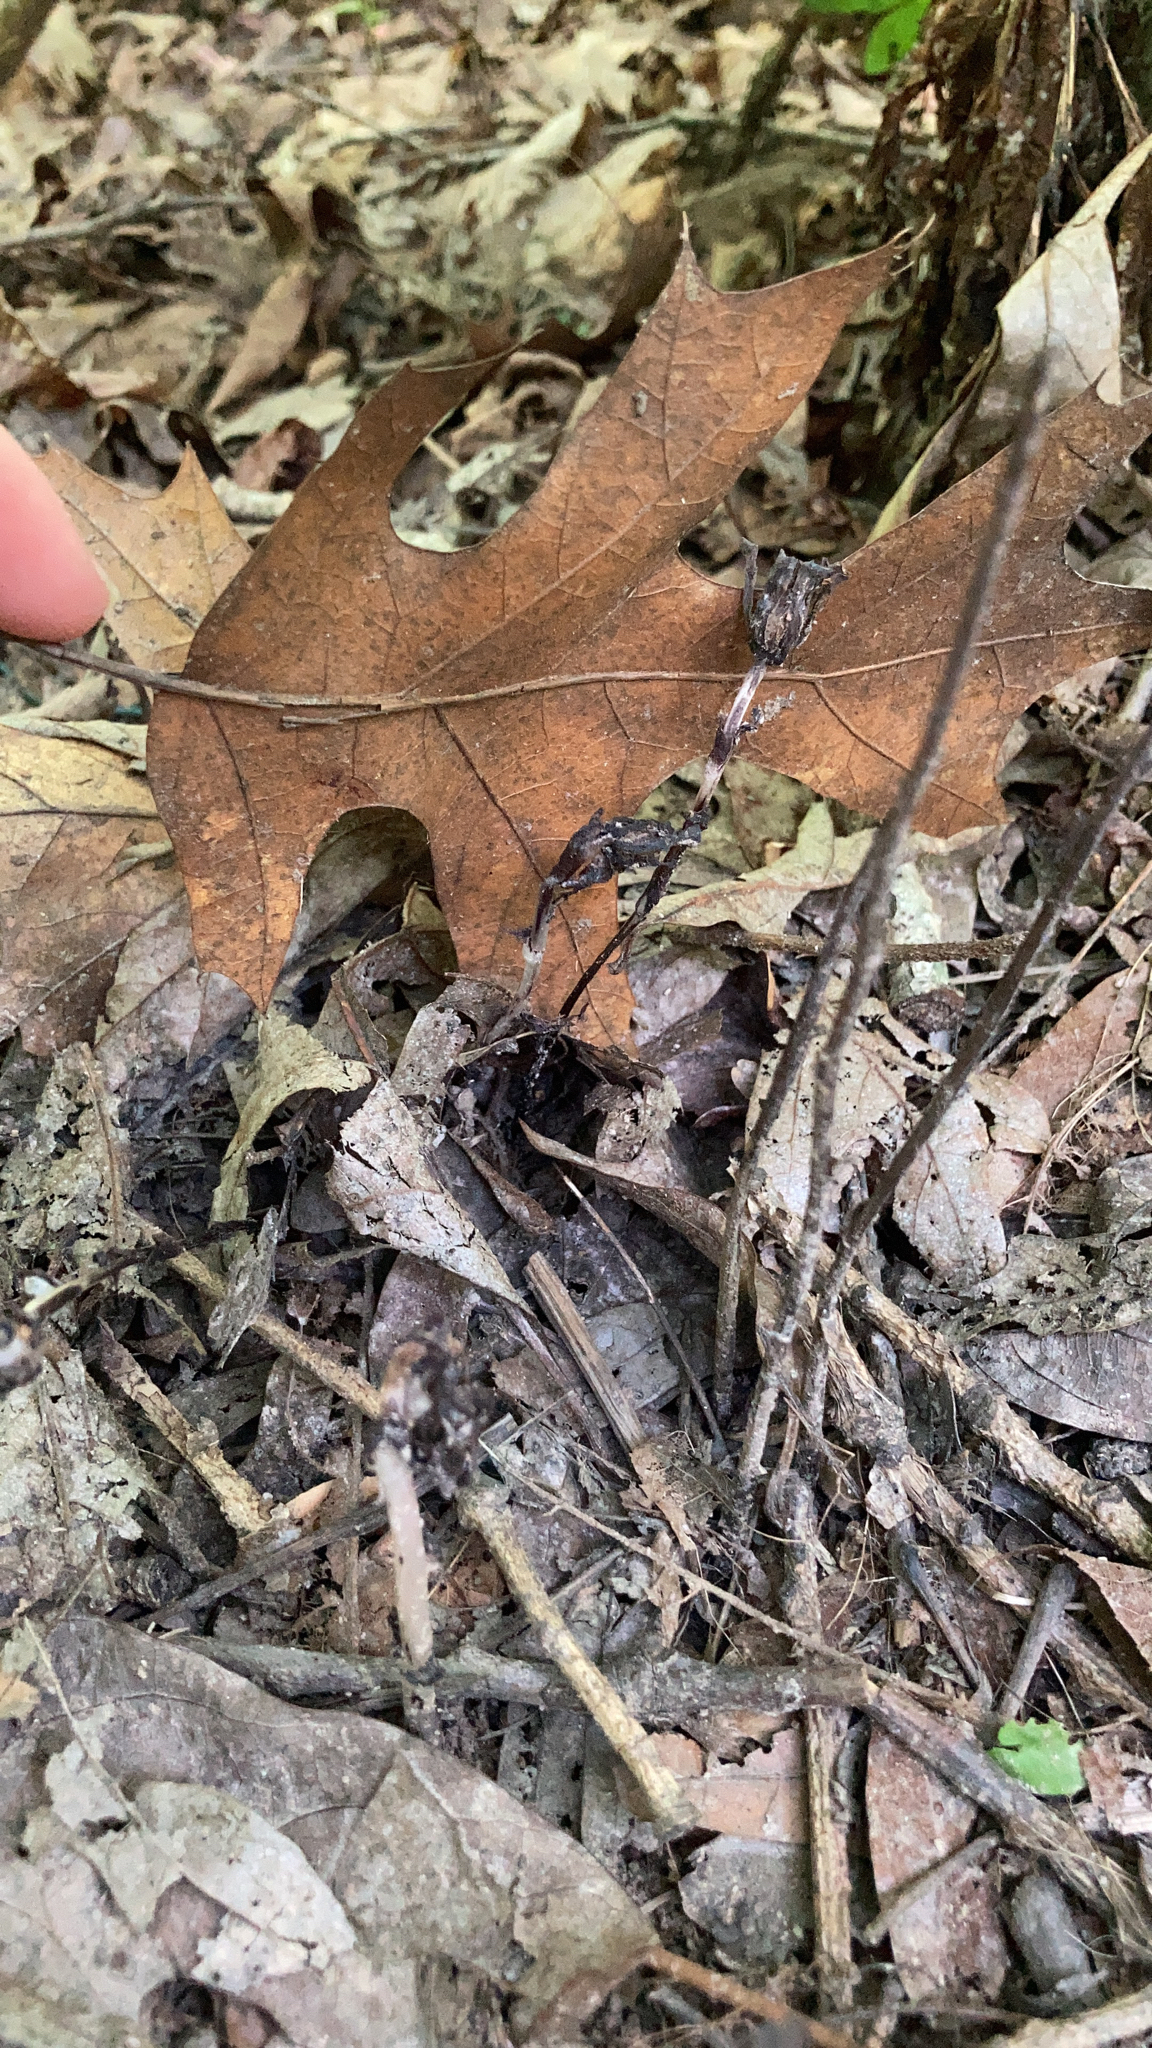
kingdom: Plantae
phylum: Tracheophyta
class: Magnoliopsida
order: Ericales
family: Ericaceae
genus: Monotropa
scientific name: Monotropa uniflora
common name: Convulsion root
